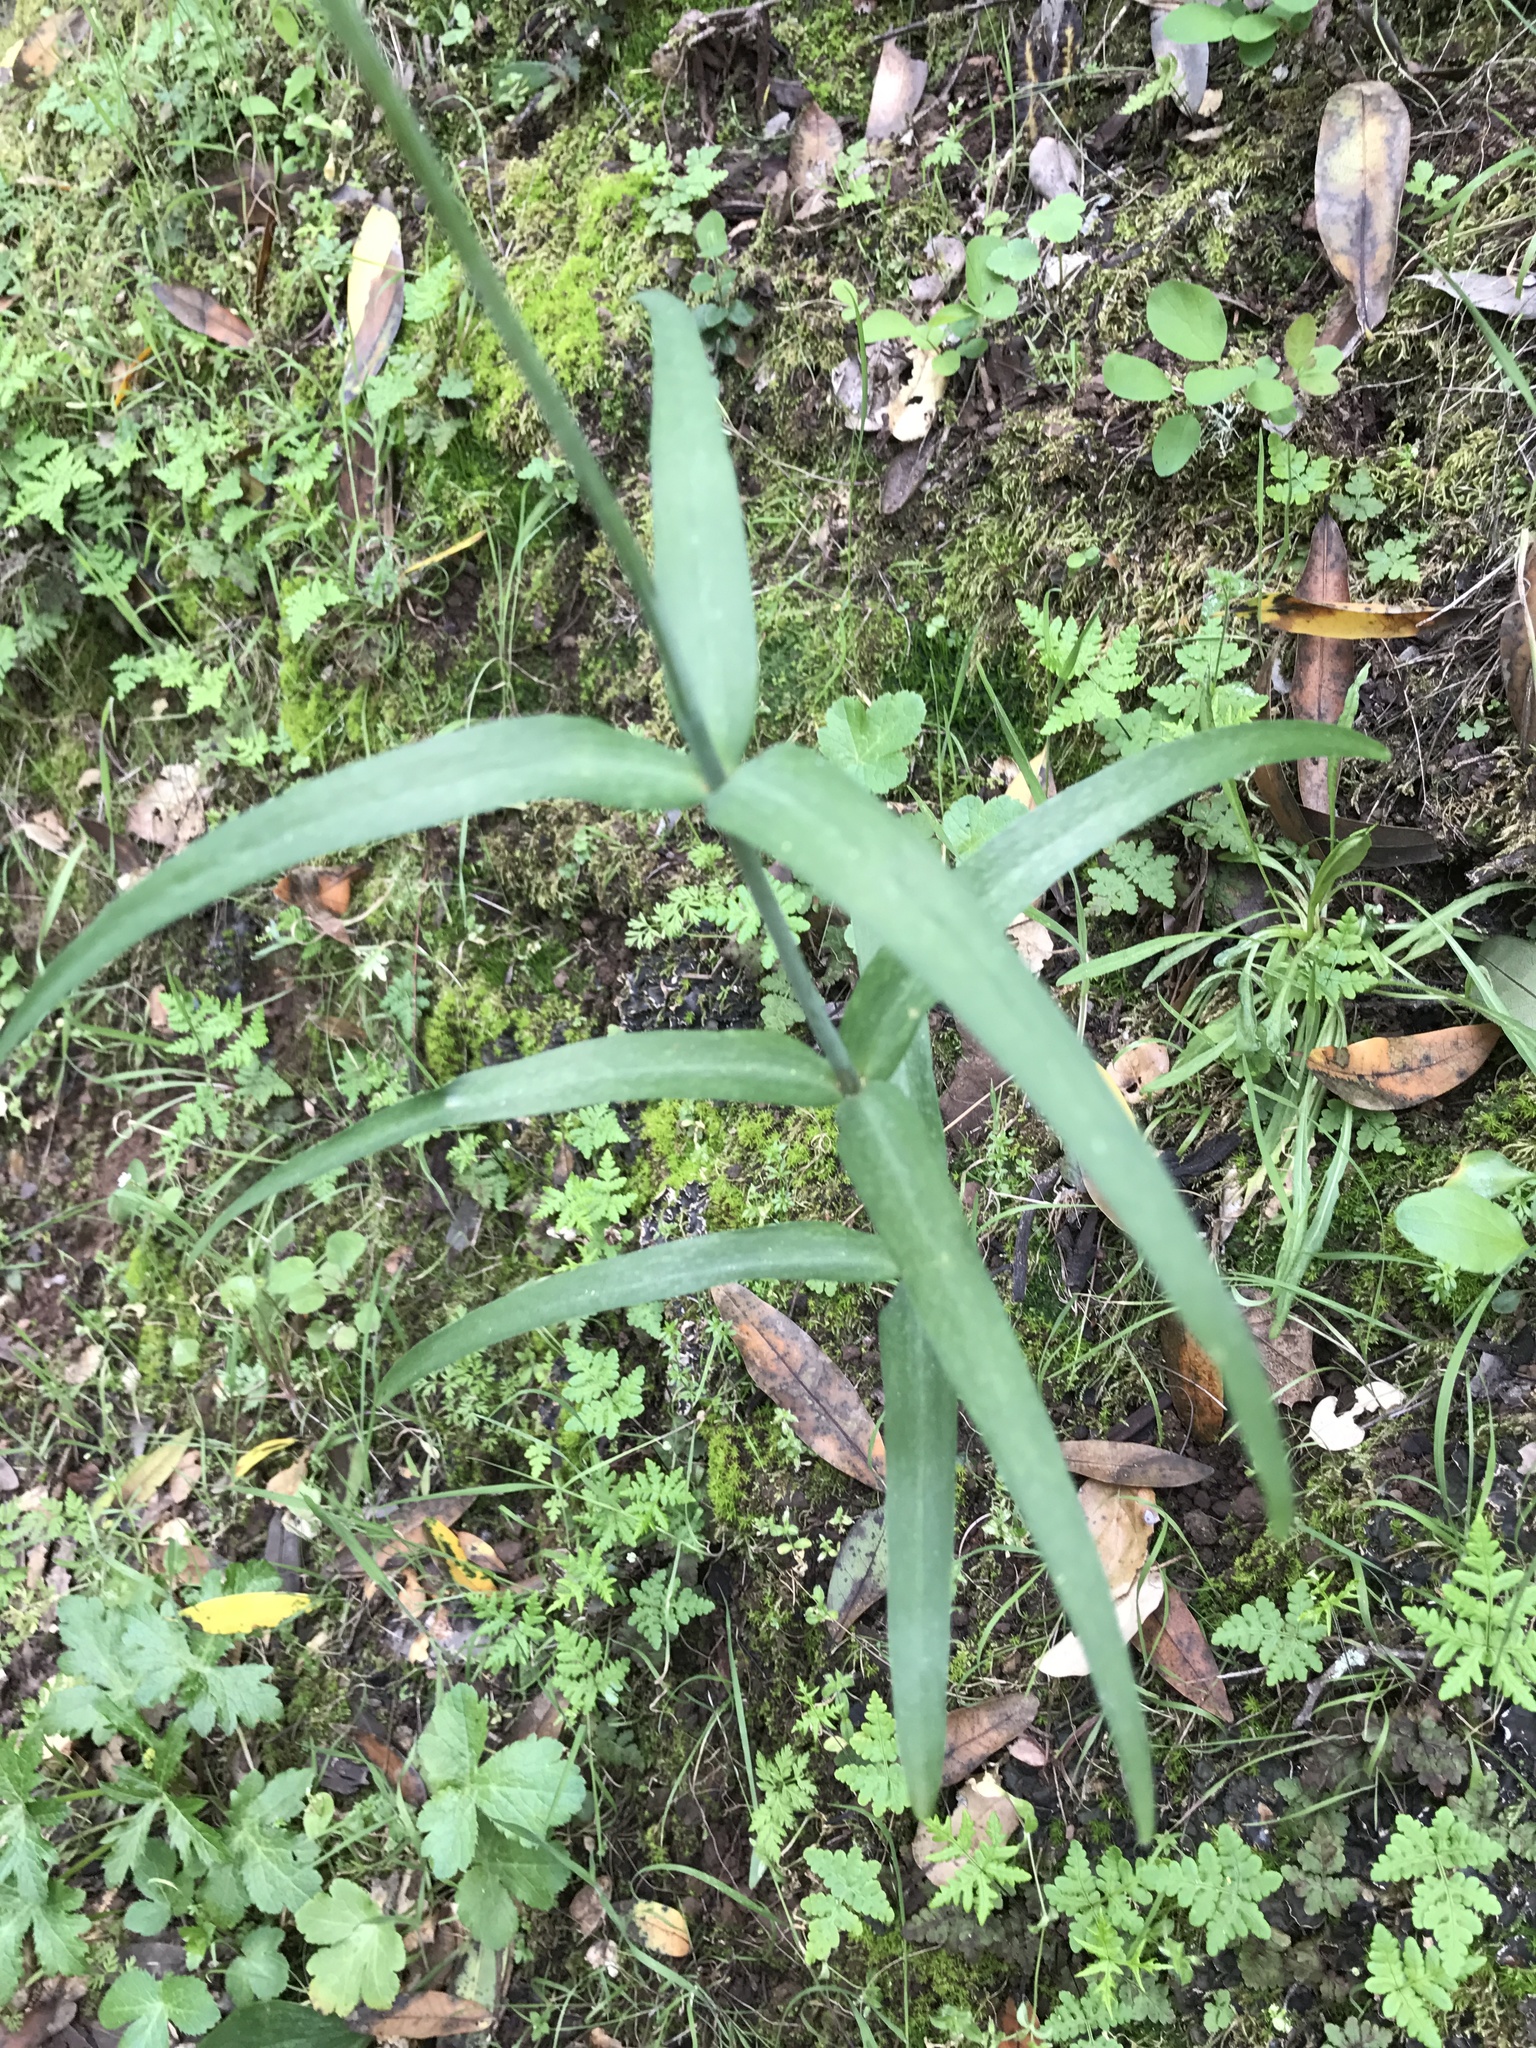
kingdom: Plantae
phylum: Tracheophyta
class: Liliopsida
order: Liliales
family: Liliaceae
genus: Fritillaria
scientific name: Fritillaria affinis
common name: Ojai fritillary
